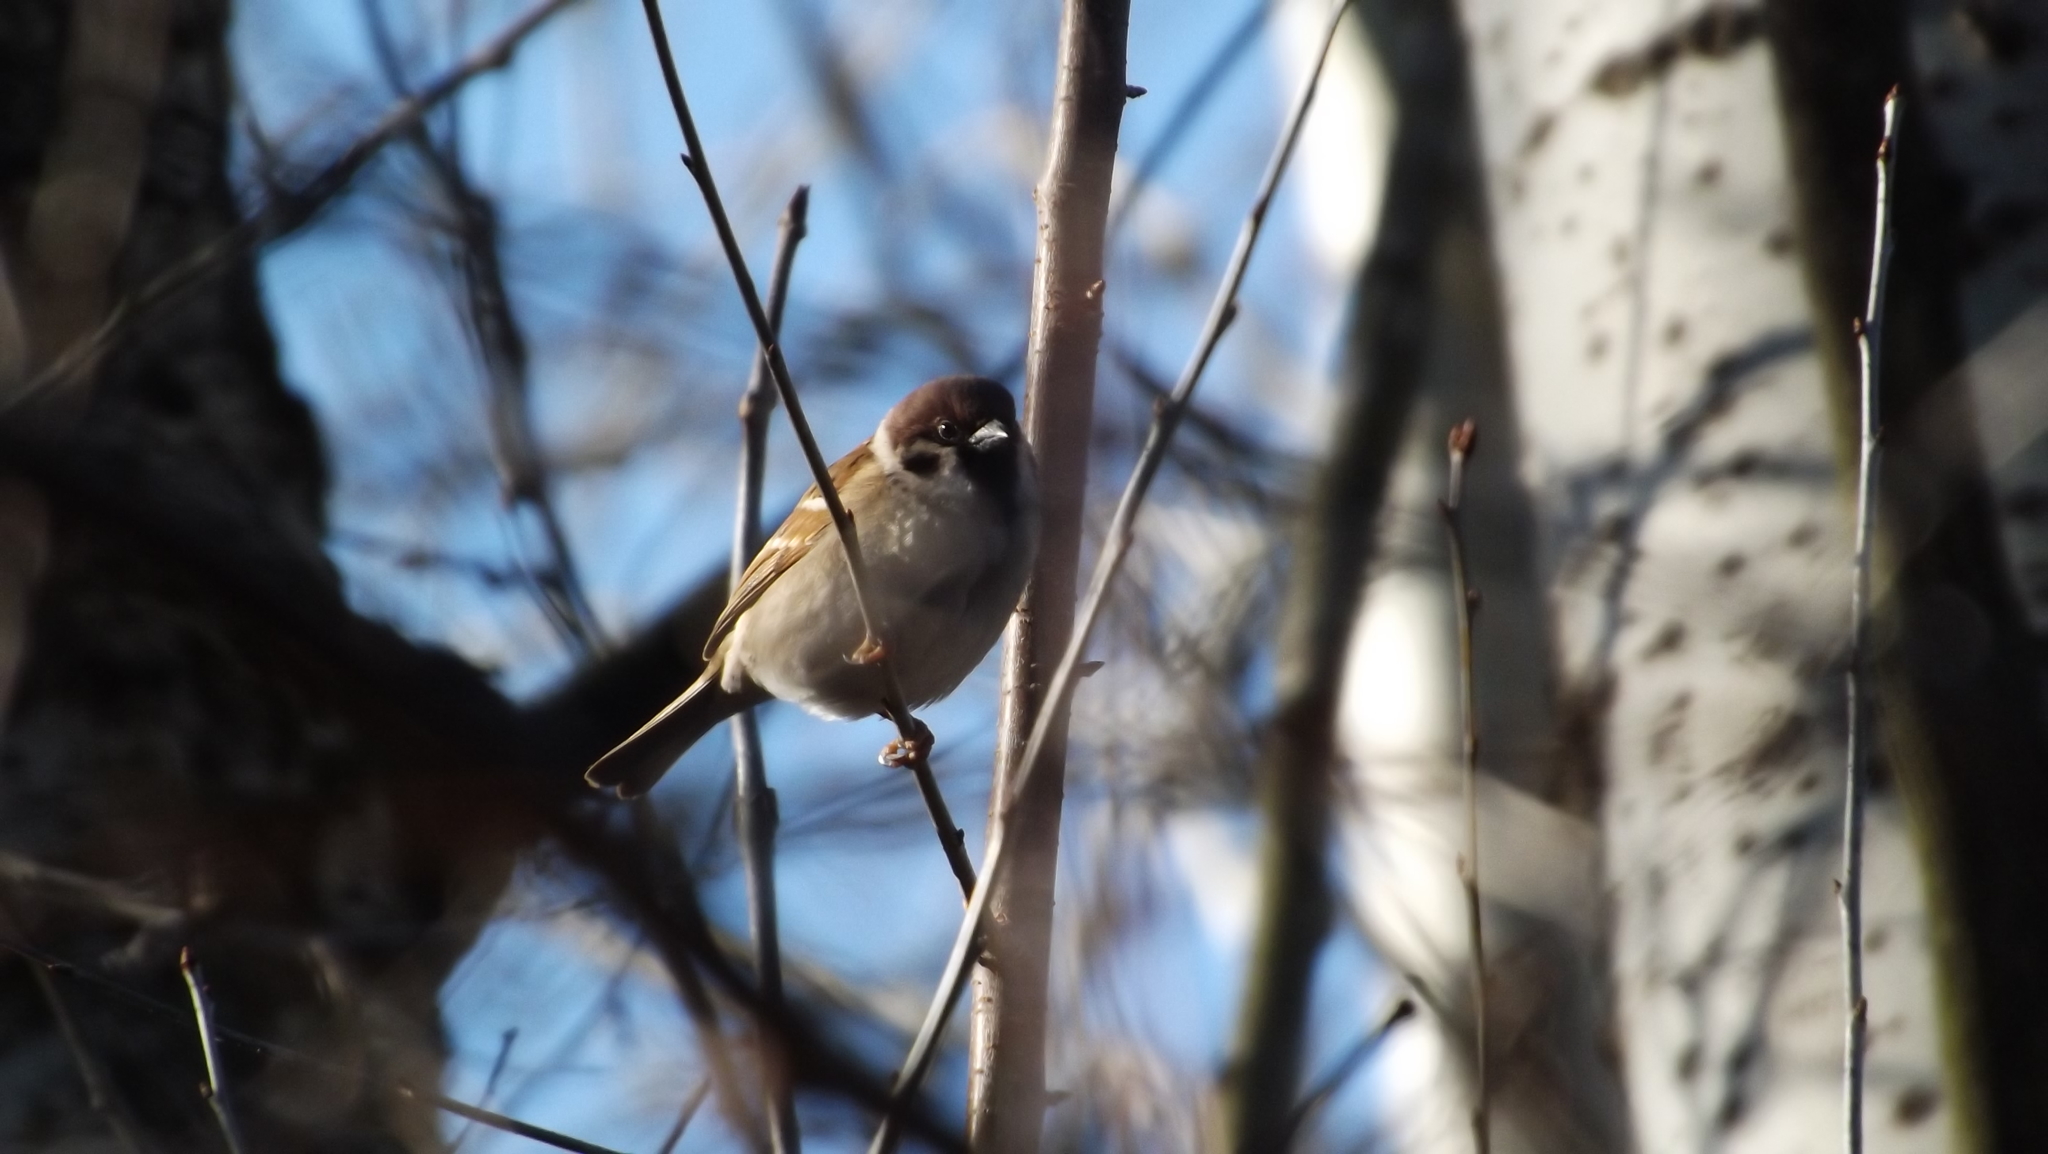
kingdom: Animalia
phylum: Chordata
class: Aves
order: Passeriformes
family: Passeridae
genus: Passer
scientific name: Passer montanus
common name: Eurasian tree sparrow
